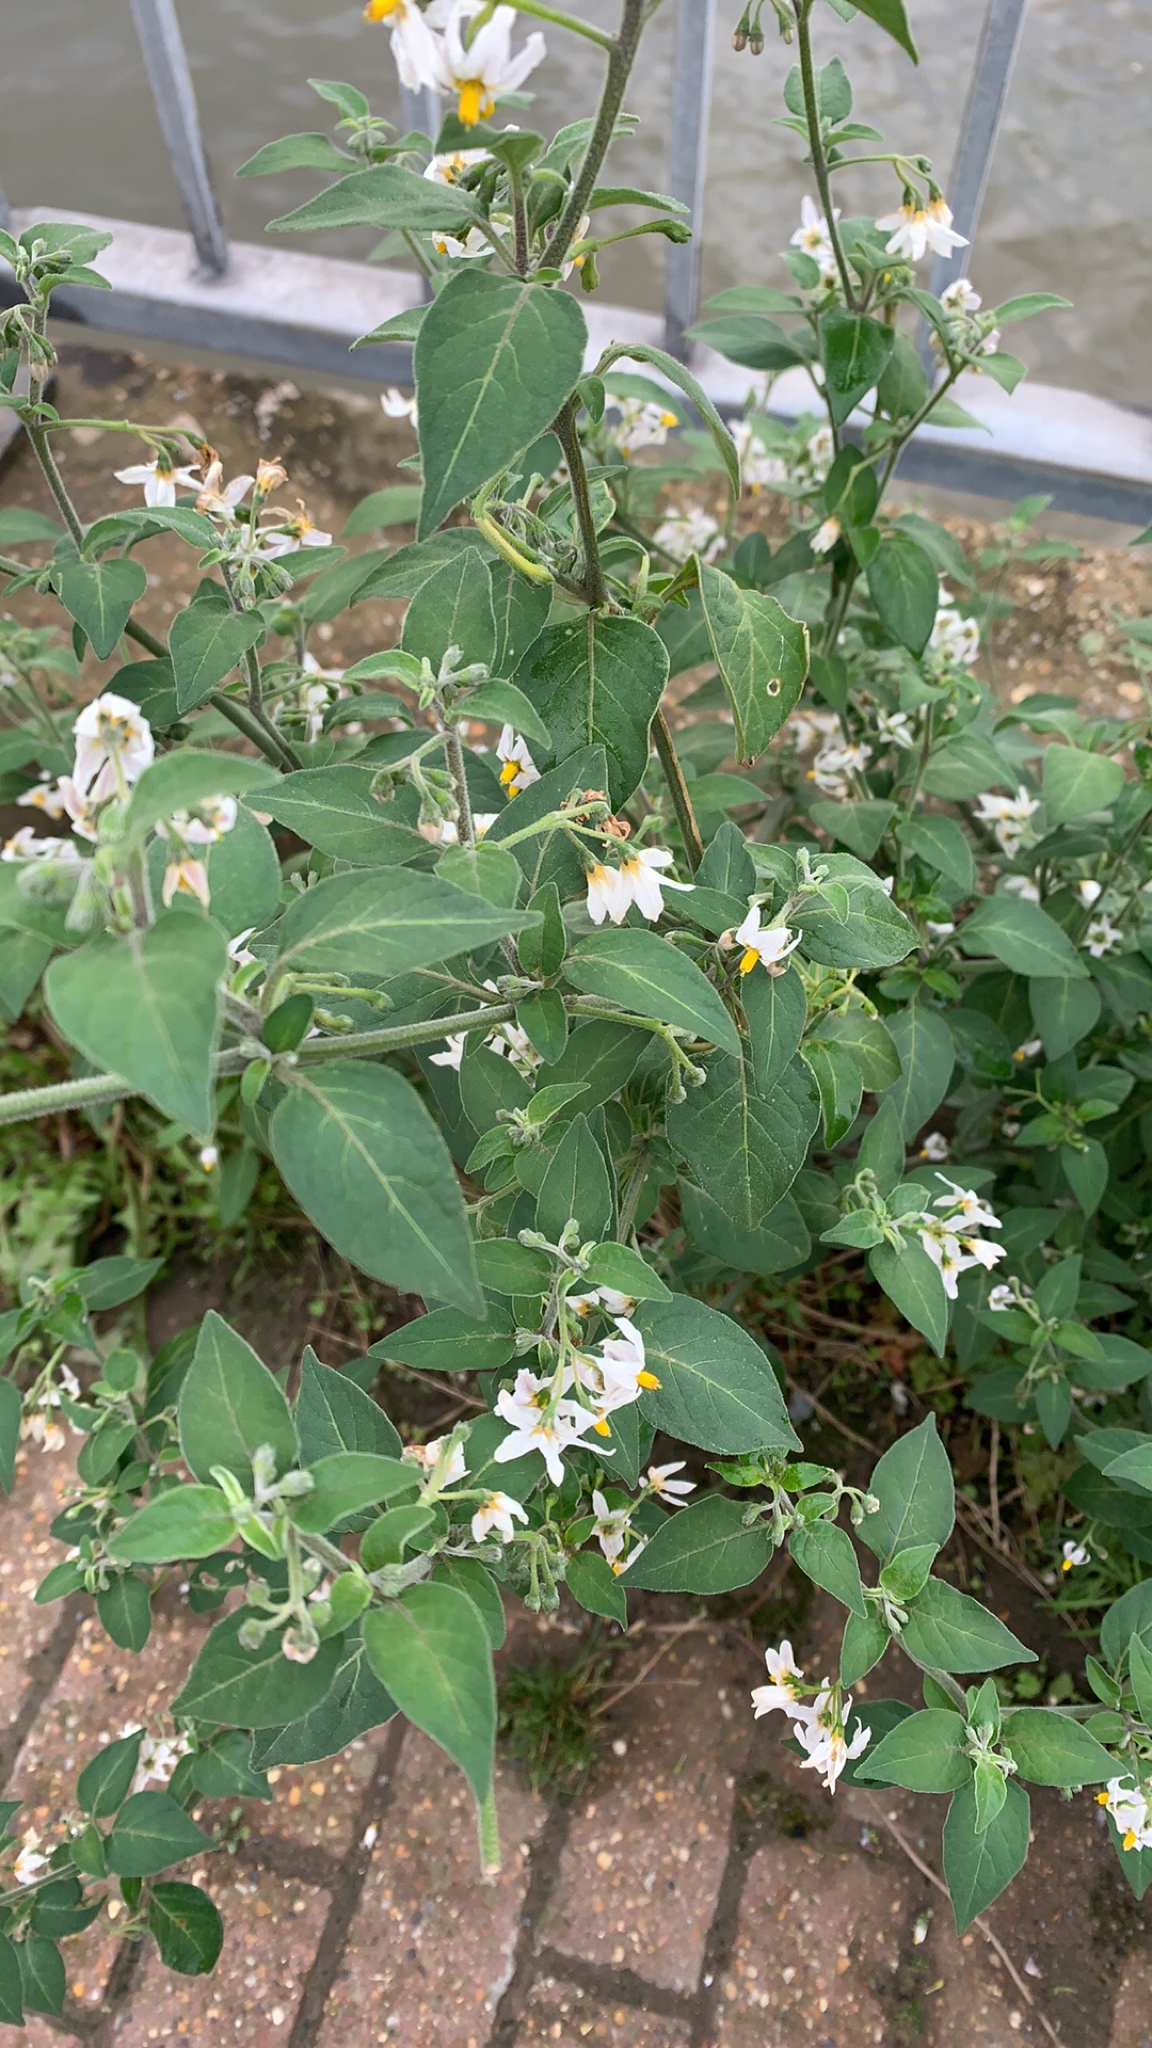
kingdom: Plantae
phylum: Tracheophyta
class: Magnoliopsida
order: Solanales
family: Solanaceae
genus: Solanum
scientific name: Solanum chenopodioides
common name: Tall nightshade
